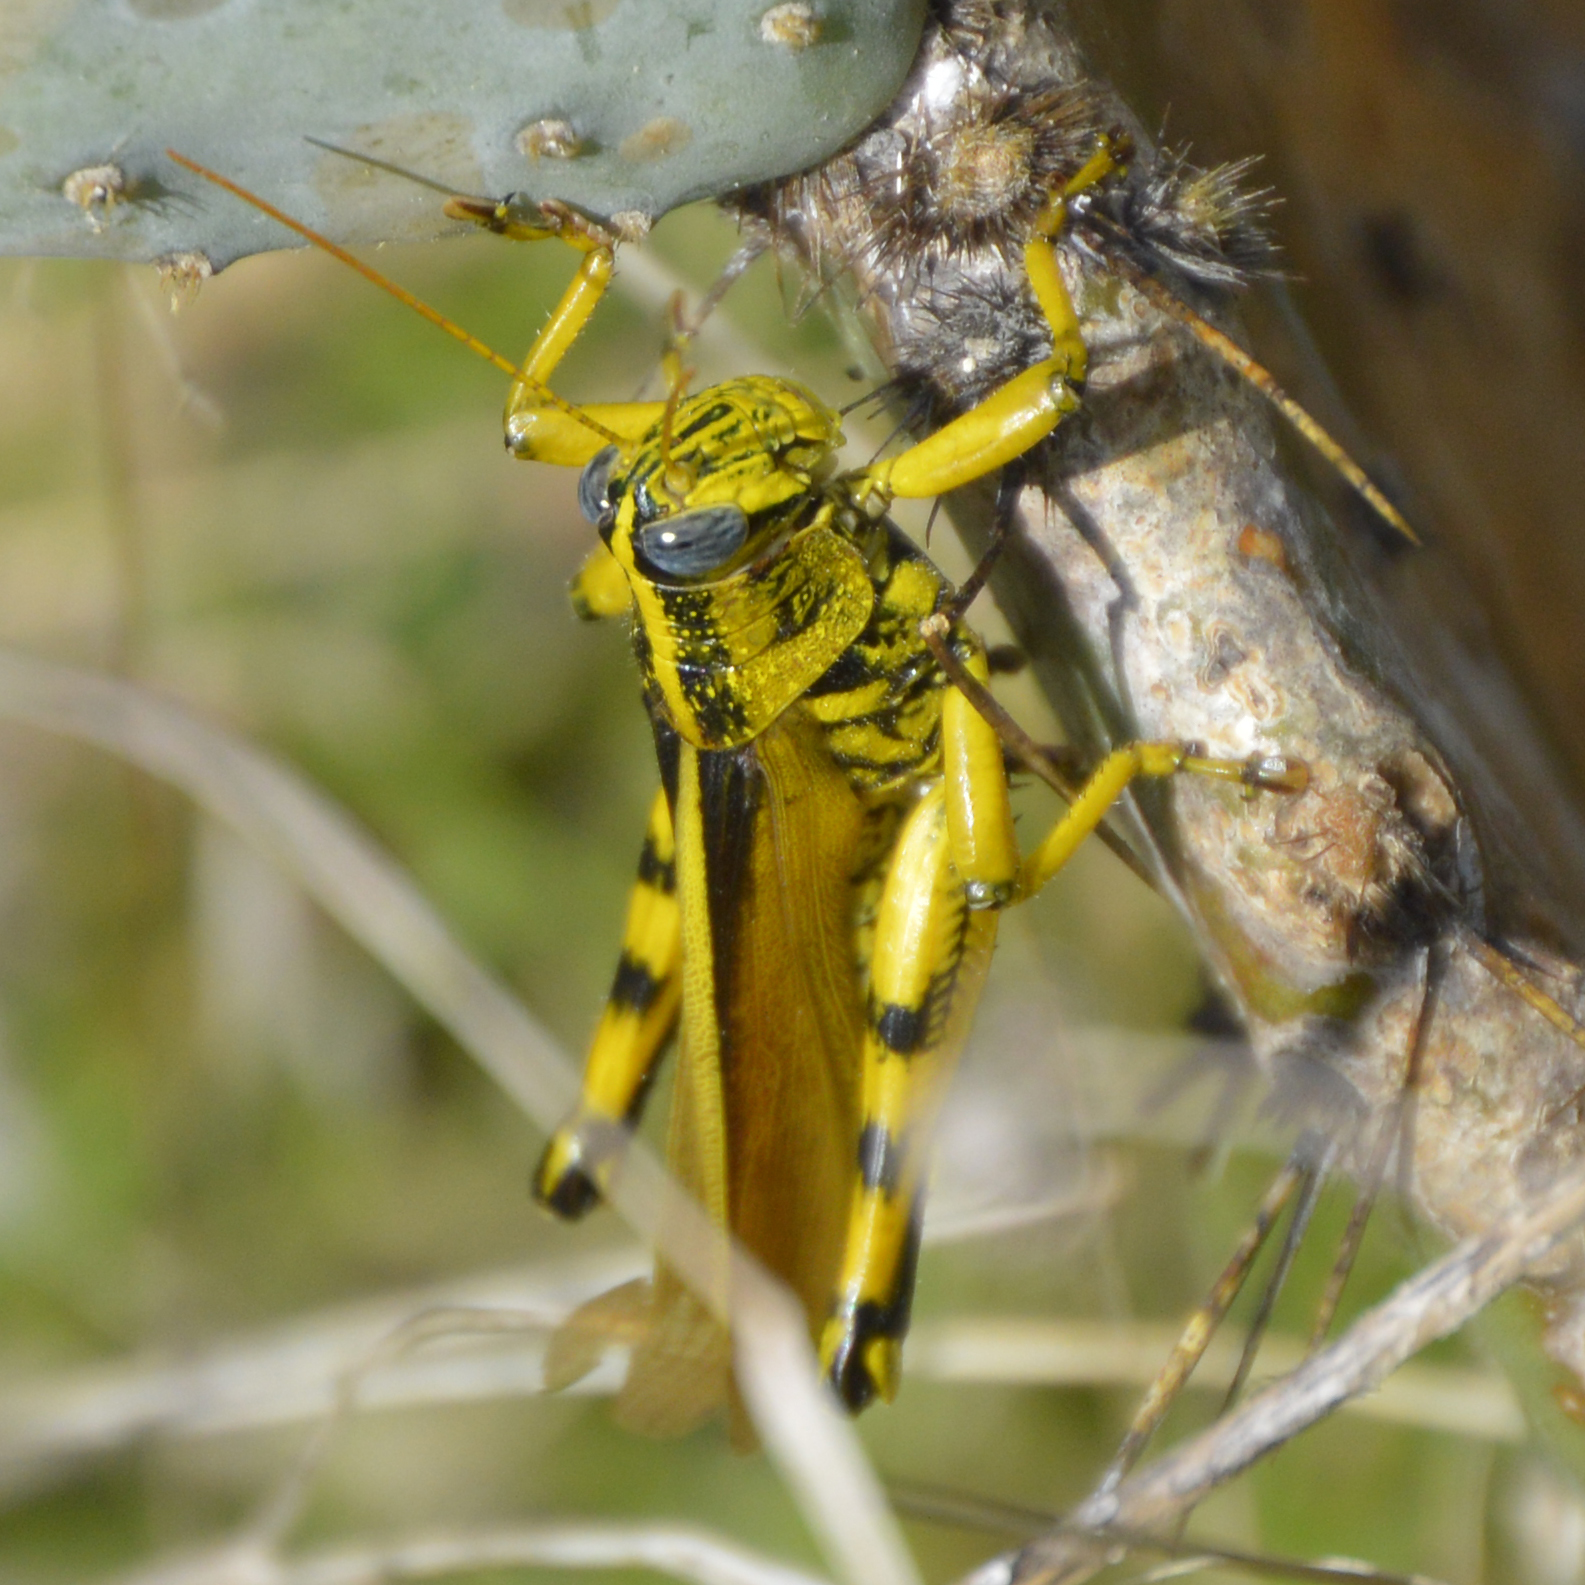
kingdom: Animalia
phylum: Arthropoda
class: Insecta
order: Orthoptera
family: Acrididae
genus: Schistocerca
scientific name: Schistocerca lineata
